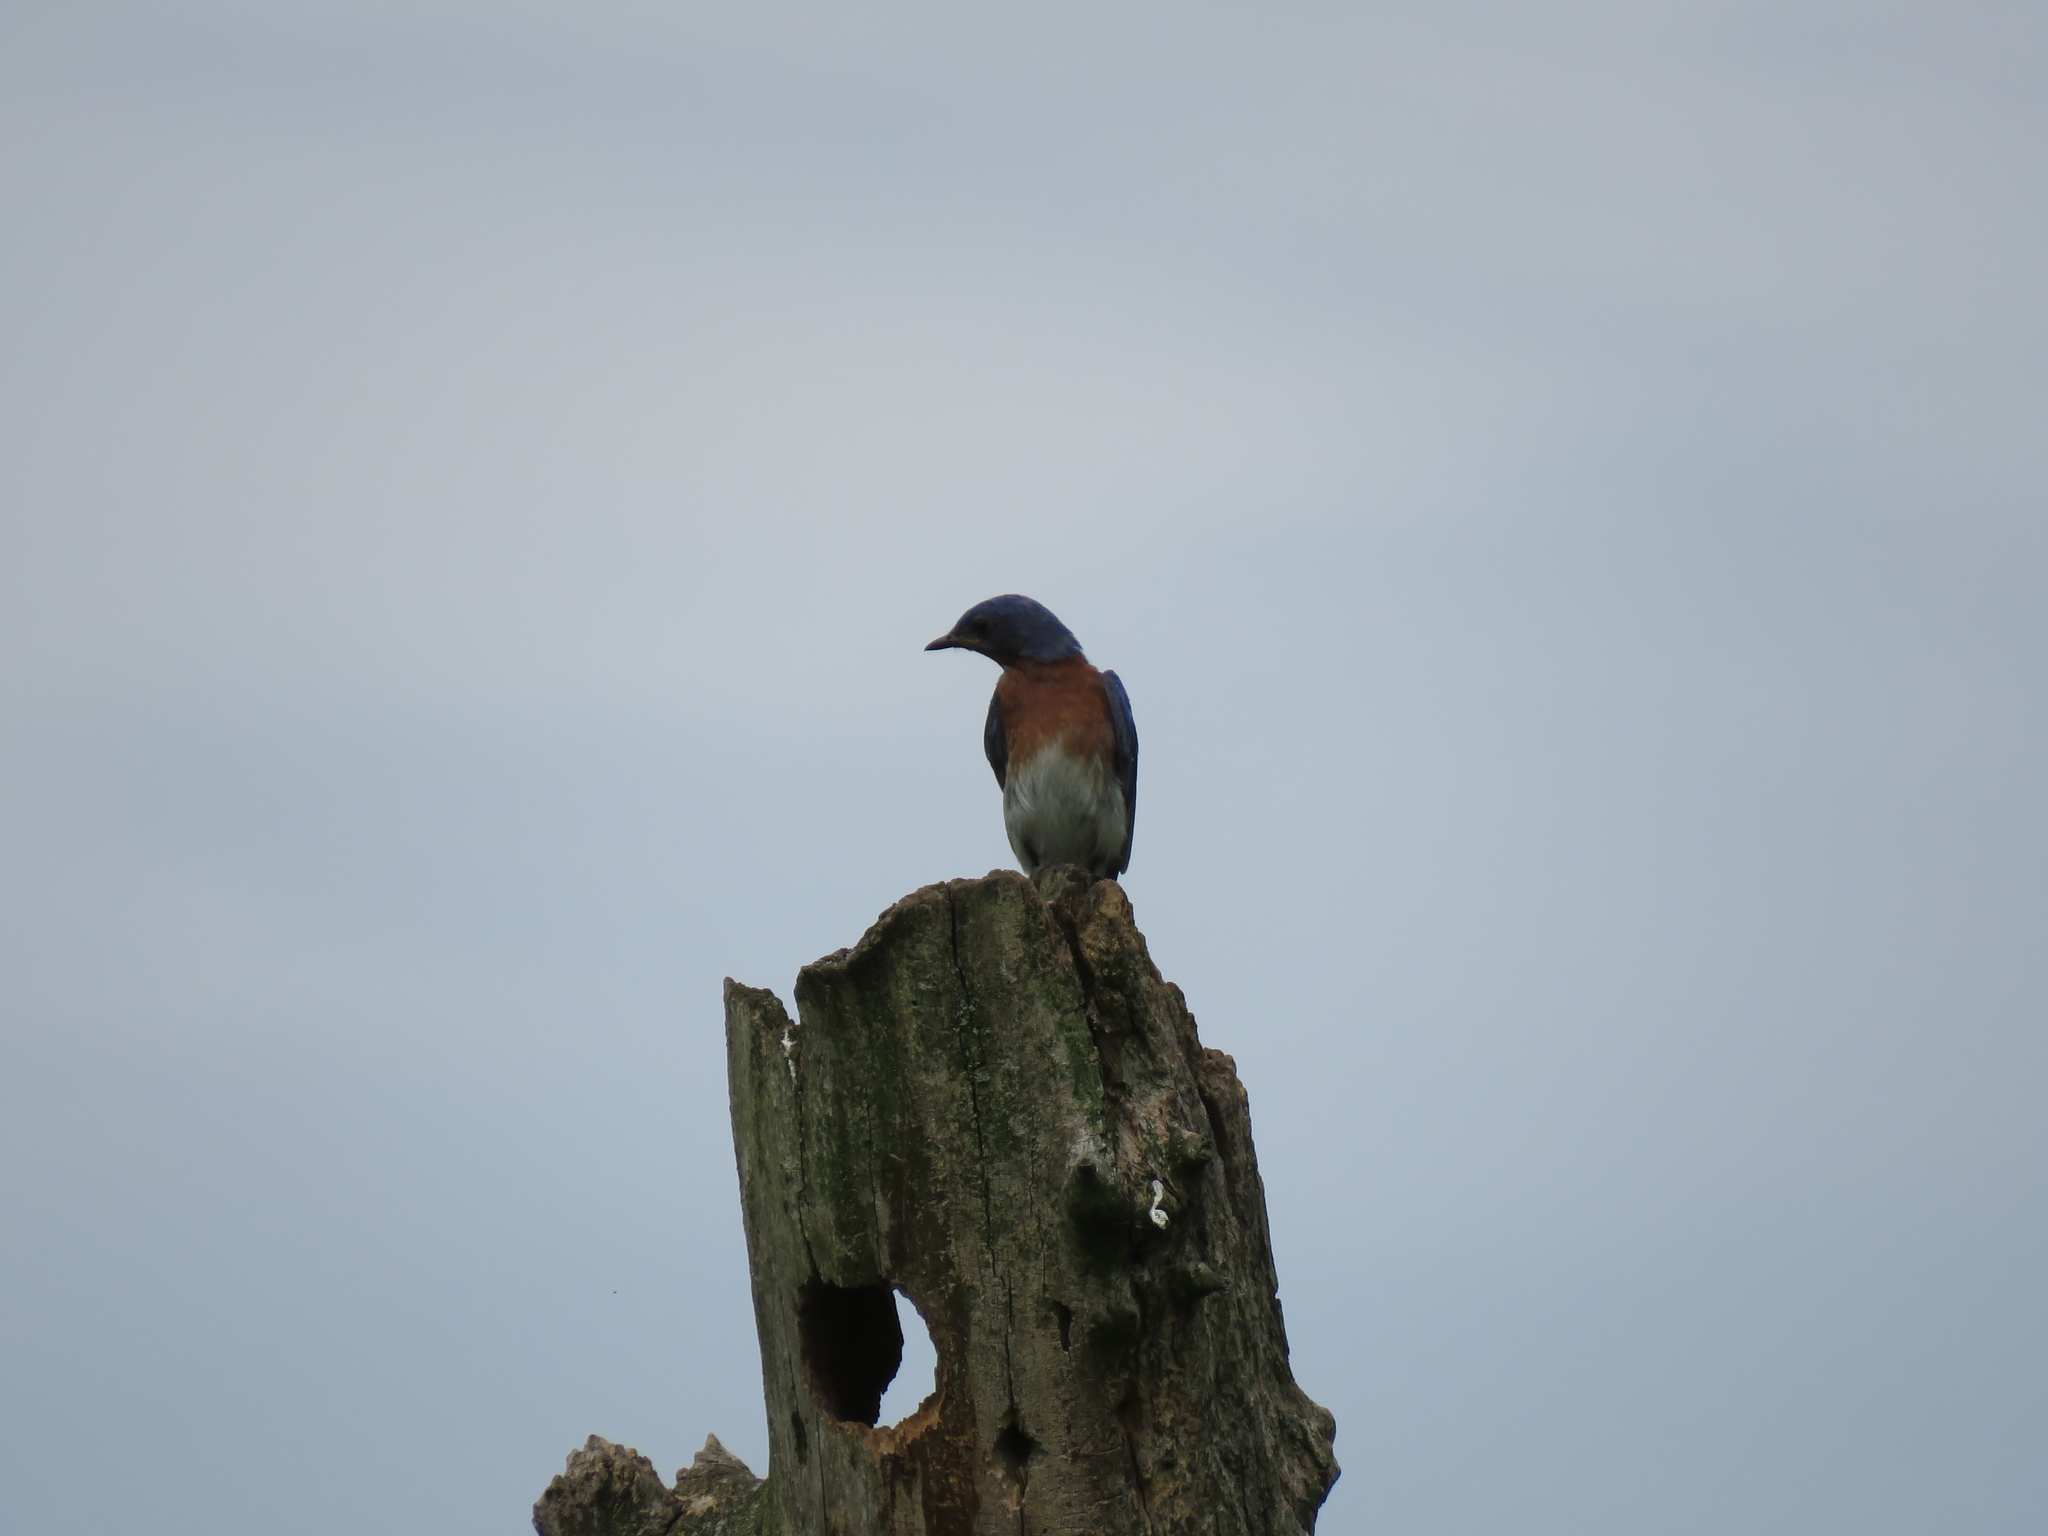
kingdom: Animalia
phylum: Chordata
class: Aves
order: Passeriformes
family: Turdidae
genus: Sialia
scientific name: Sialia sialis
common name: Eastern bluebird
